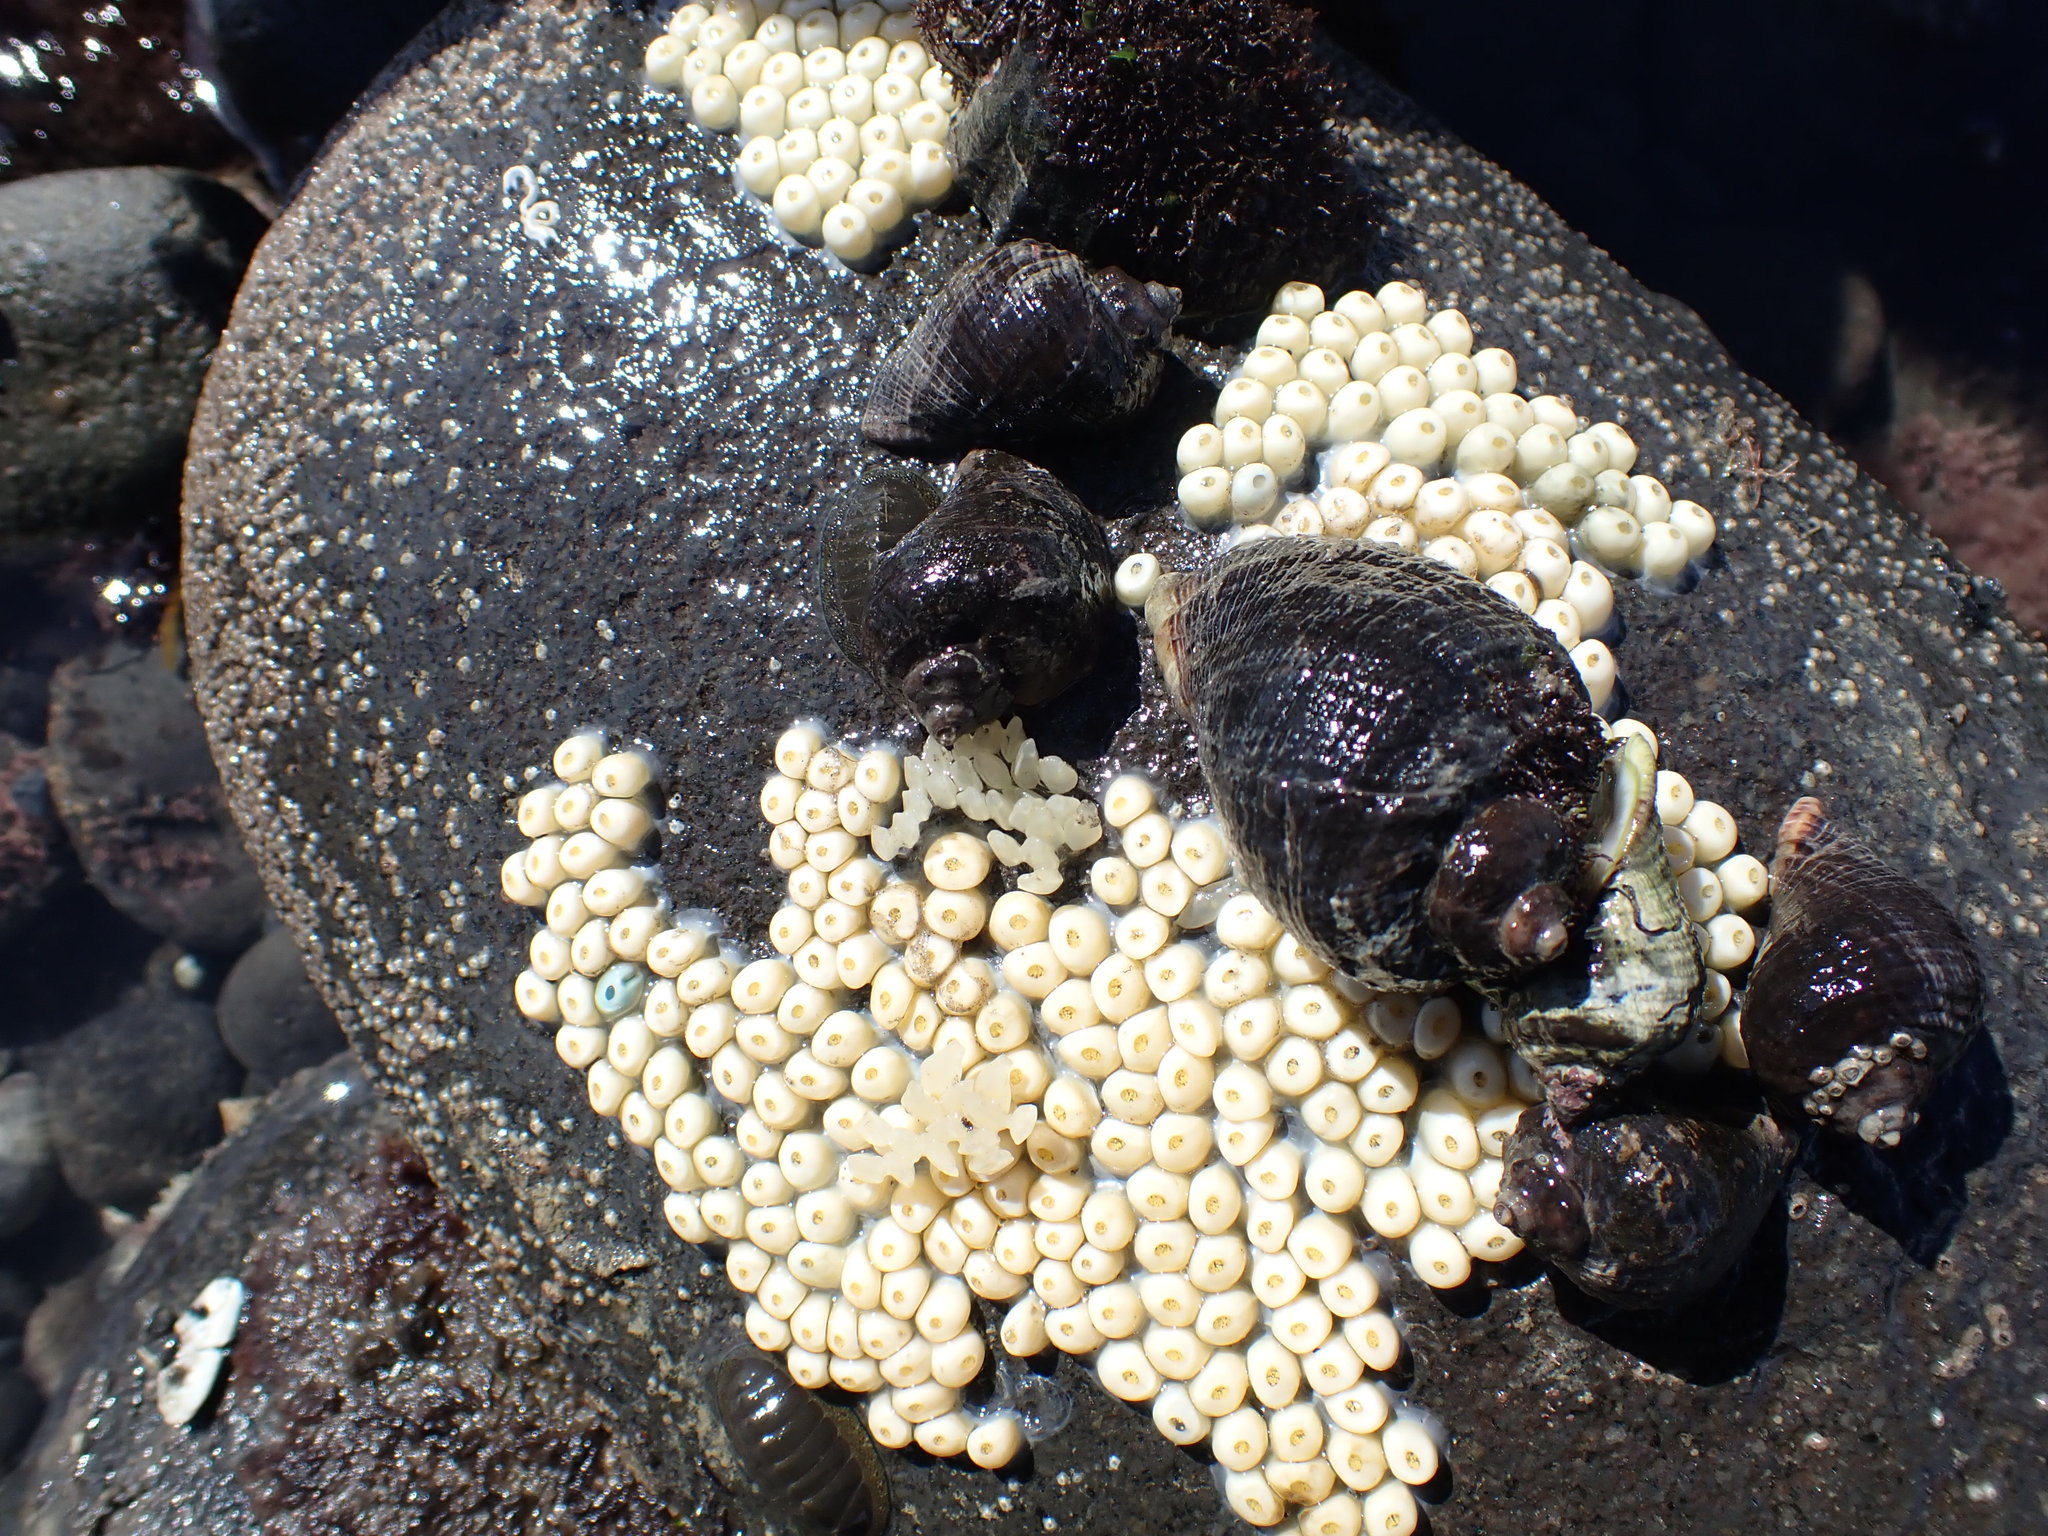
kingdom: Animalia
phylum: Mollusca
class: Gastropoda
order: Neogastropoda
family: Cominellidae
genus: Cominella
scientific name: Cominella maculosa
